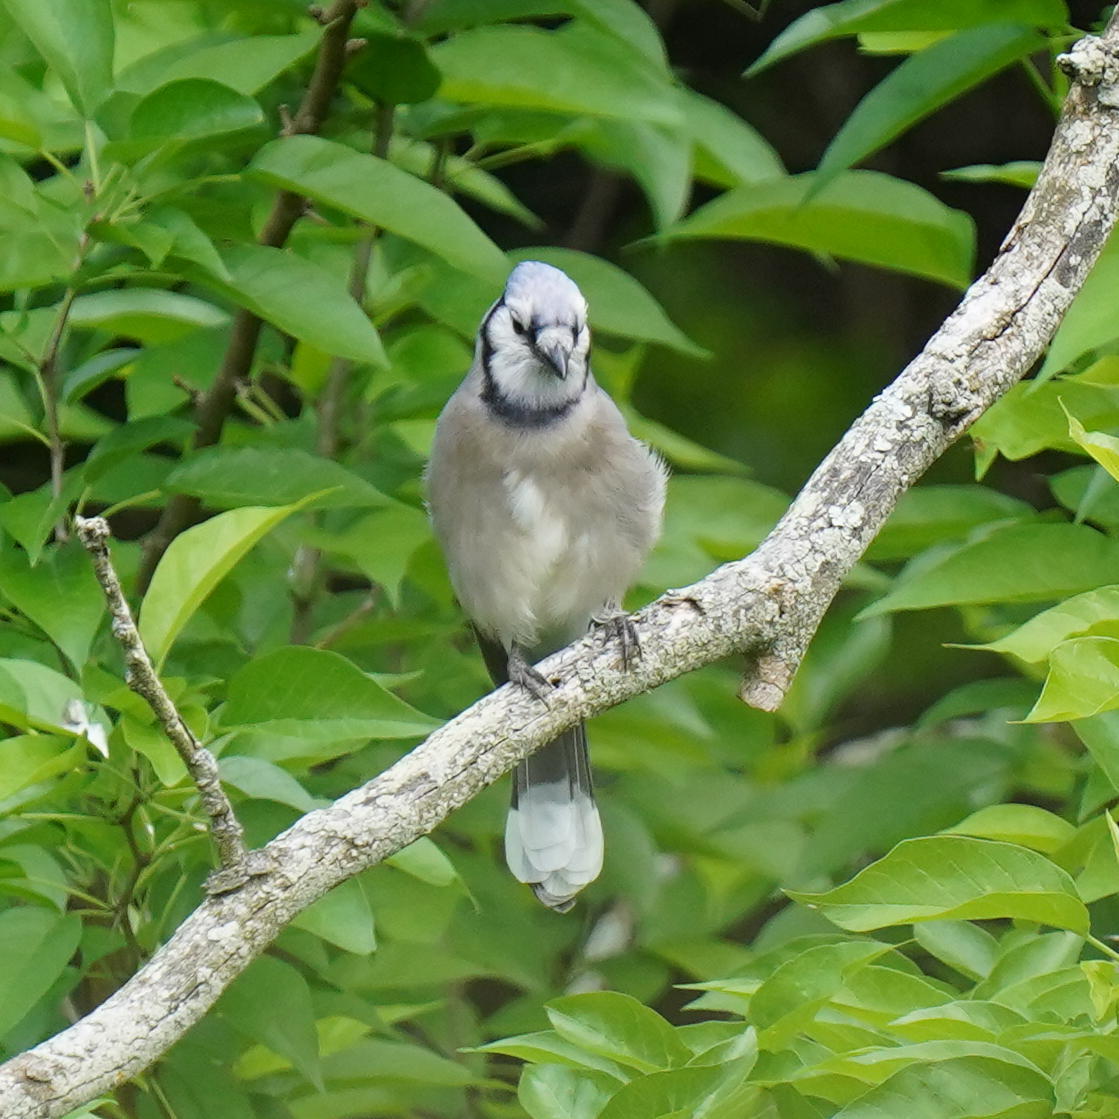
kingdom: Animalia
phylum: Chordata
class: Aves
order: Passeriformes
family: Corvidae
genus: Cyanocitta
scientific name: Cyanocitta cristata
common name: Blue jay
